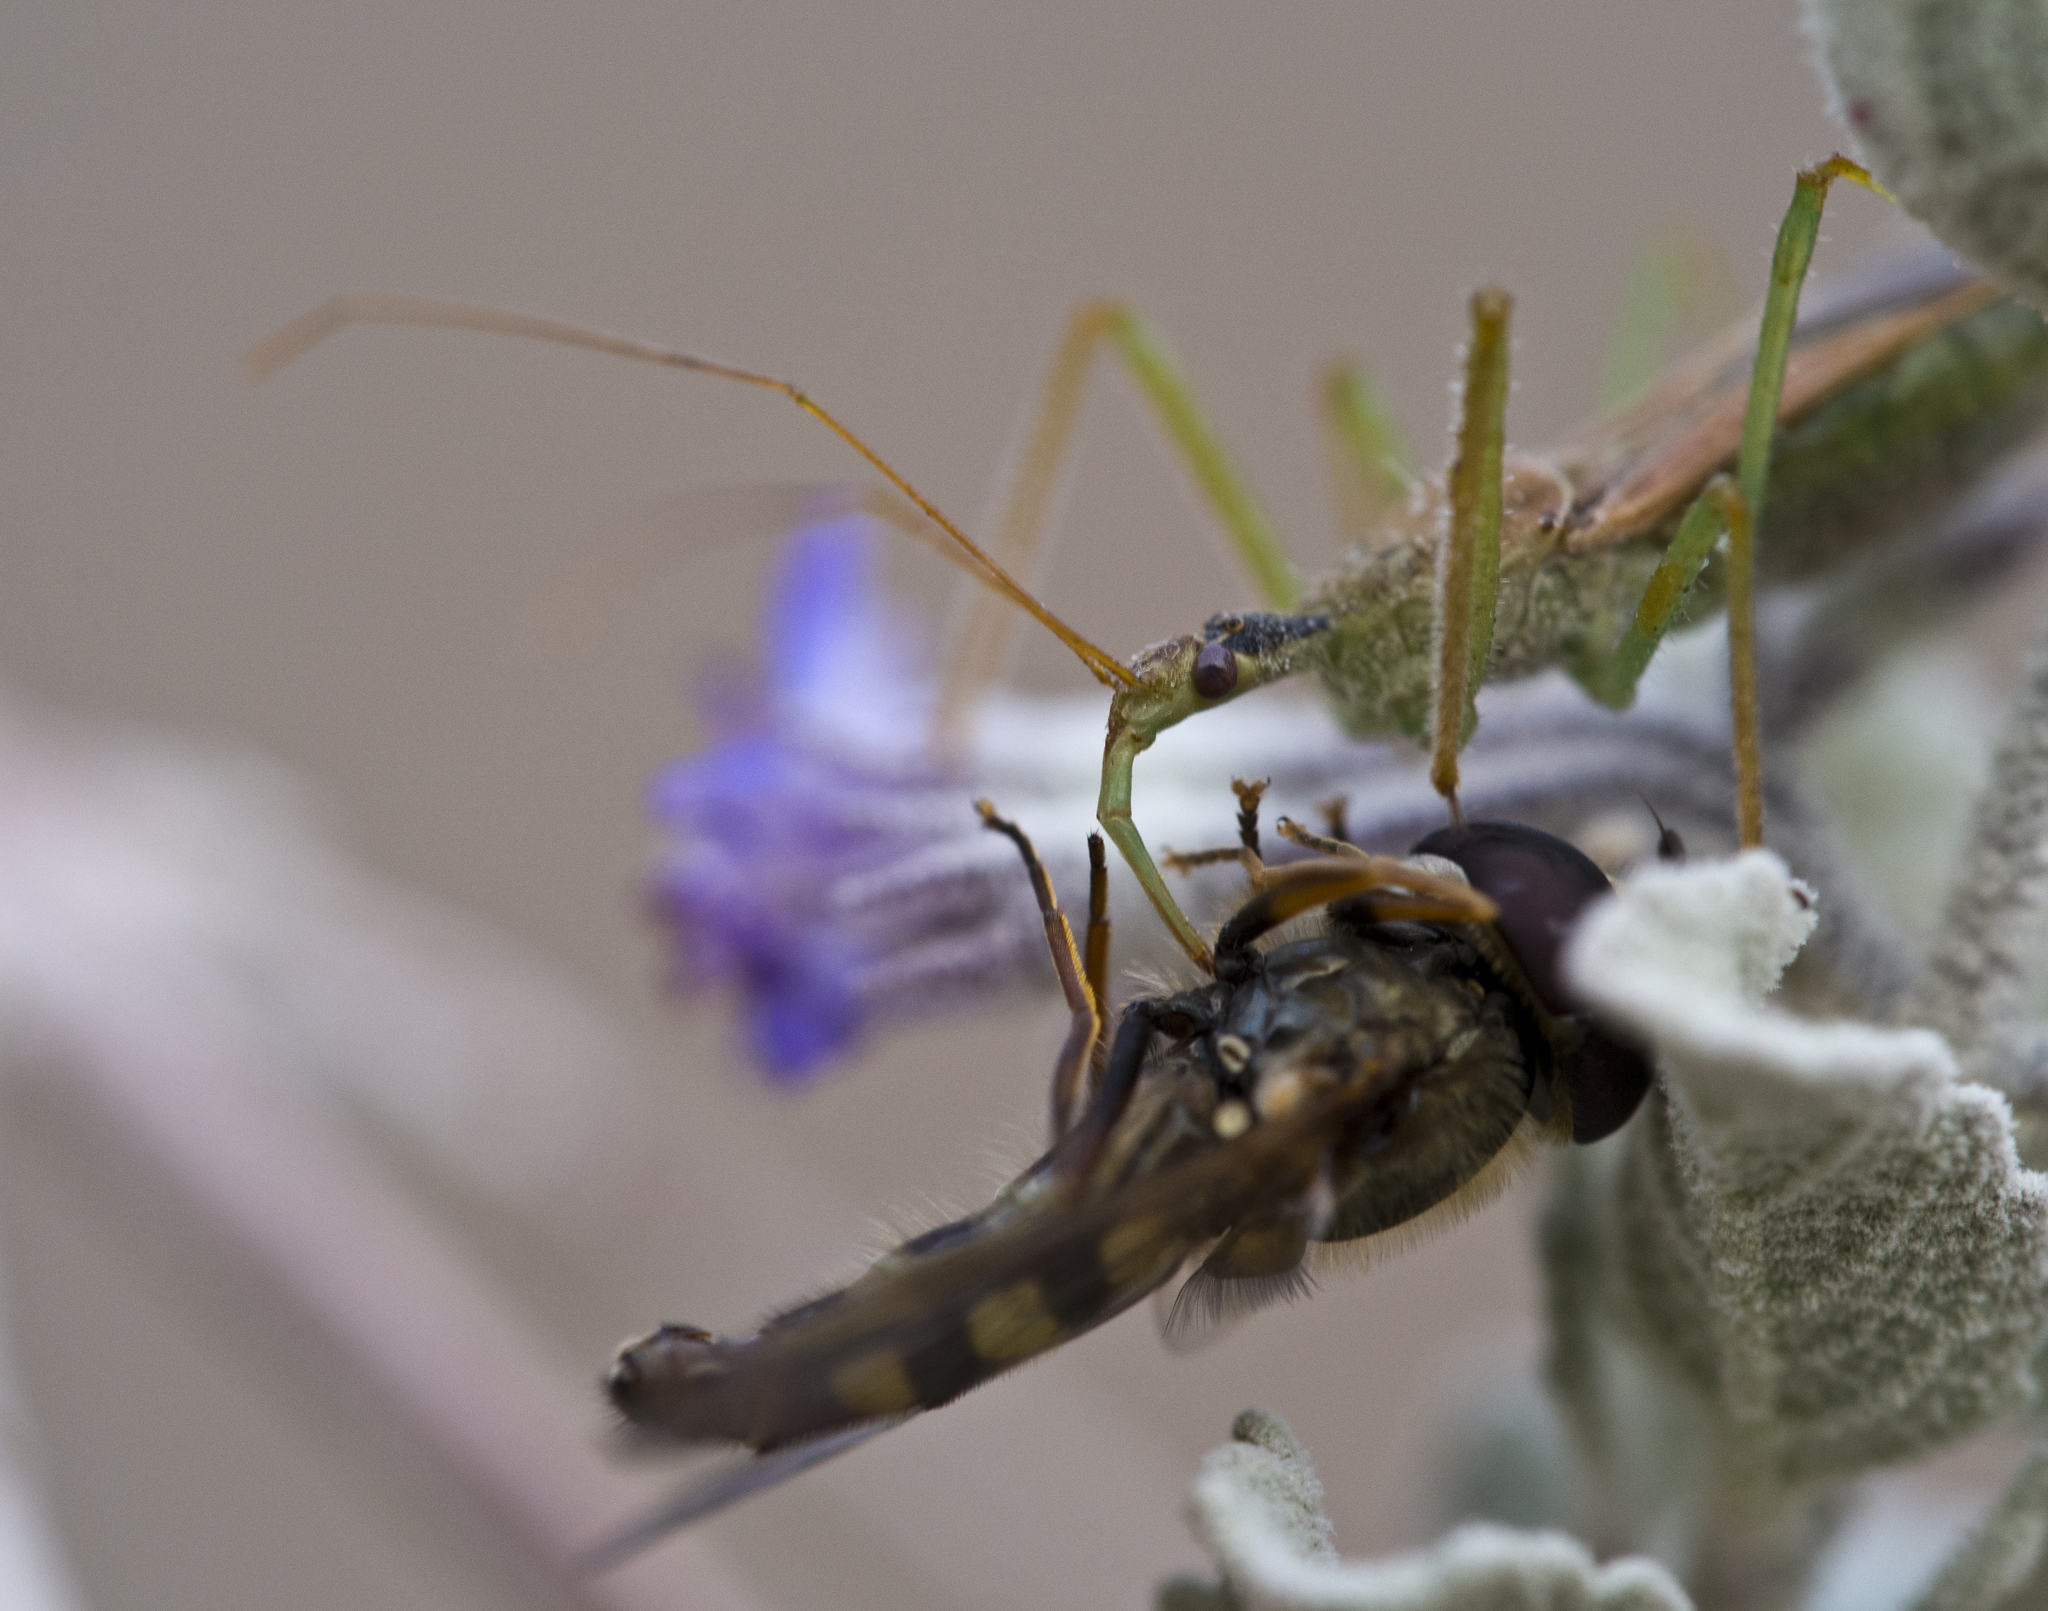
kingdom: Animalia
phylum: Arthropoda
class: Insecta
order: Hemiptera
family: Reduviidae
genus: Zelus
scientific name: Zelus renardii
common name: Assassin bug
